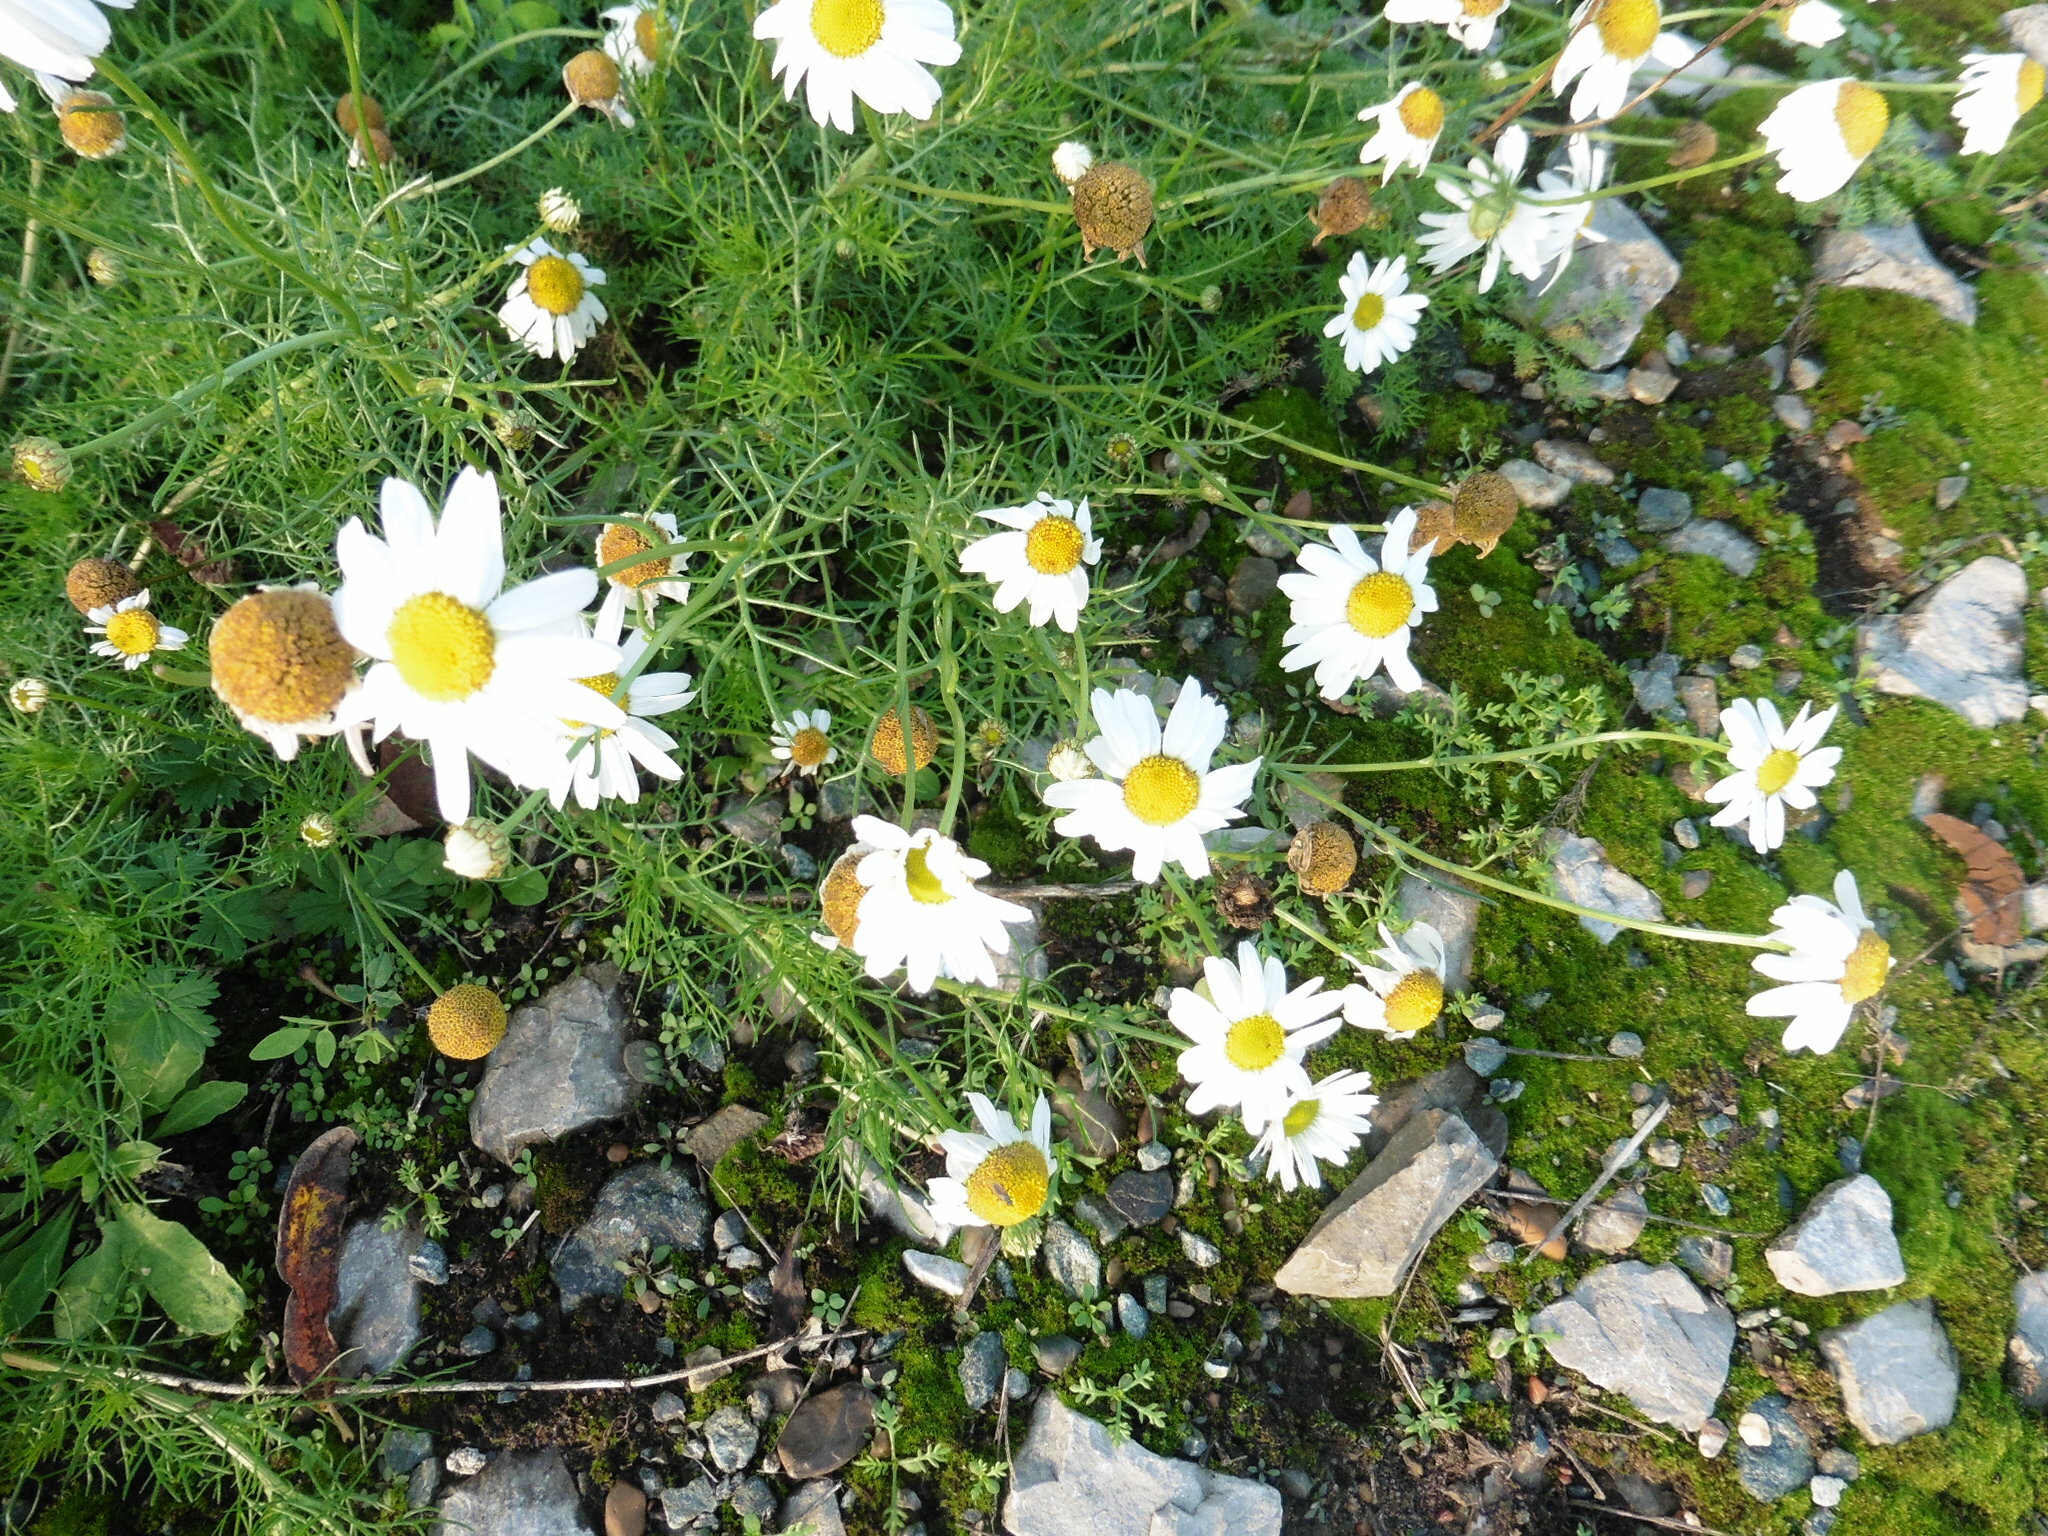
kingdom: Plantae
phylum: Tracheophyta
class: Magnoliopsida
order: Asterales
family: Asteraceae
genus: Tripleurospermum
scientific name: Tripleurospermum inodorum
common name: Scentless mayweed
